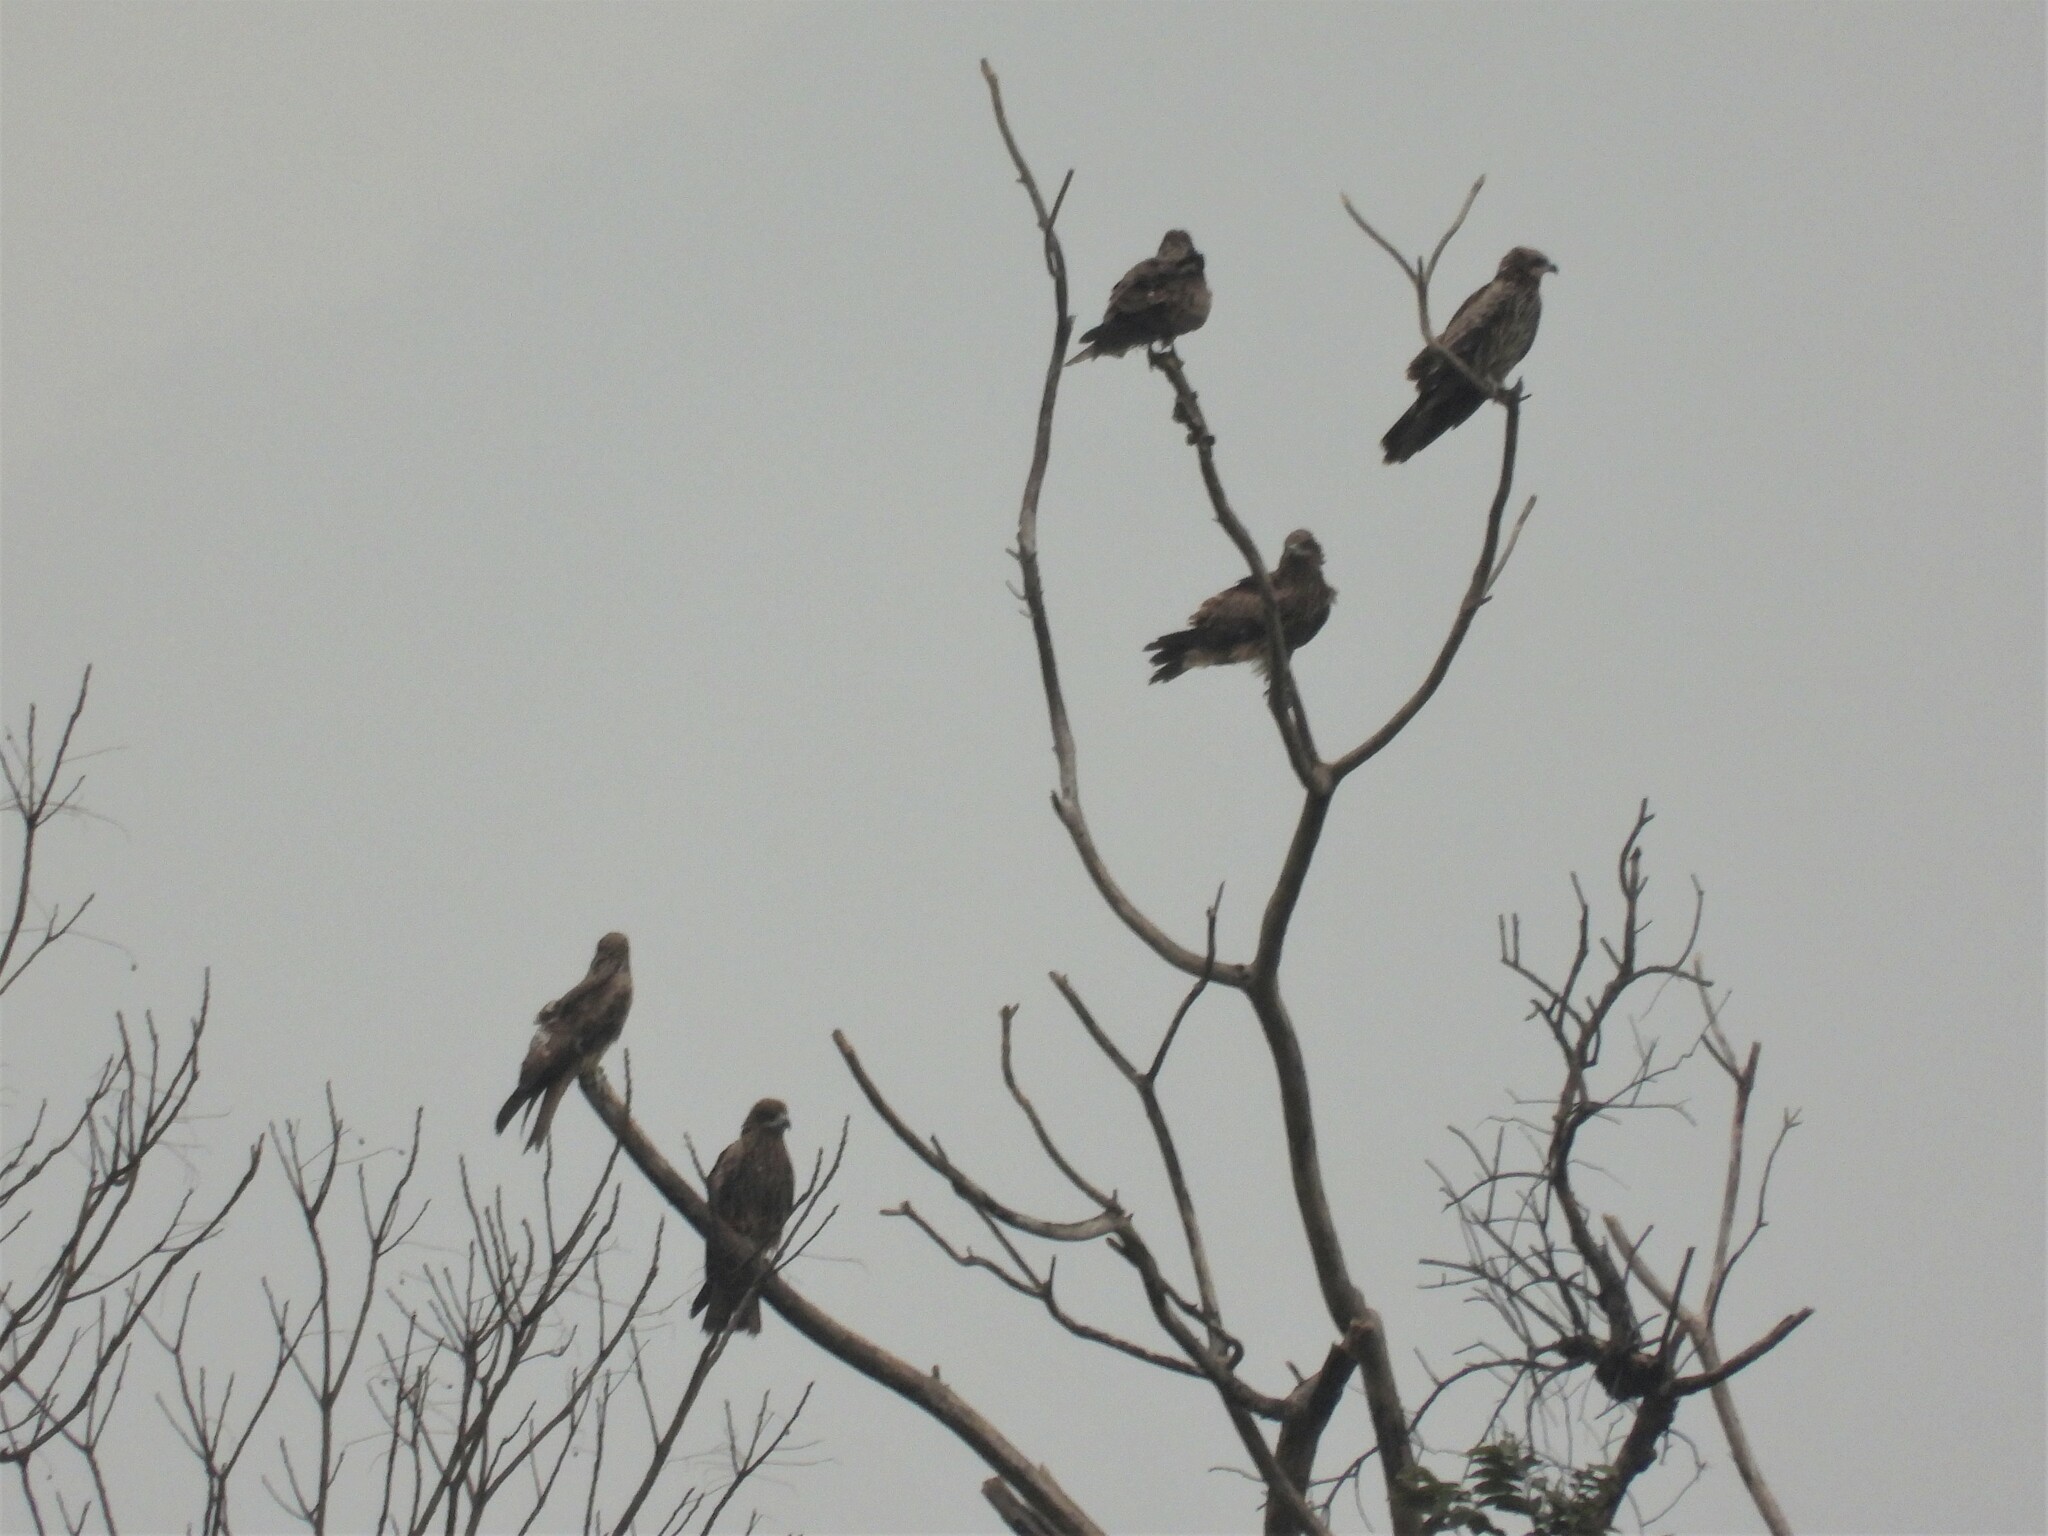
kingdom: Animalia
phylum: Chordata
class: Aves
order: Accipitriformes
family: Accipitridae
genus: Milvus
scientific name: Milvus migrans
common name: Black kite
